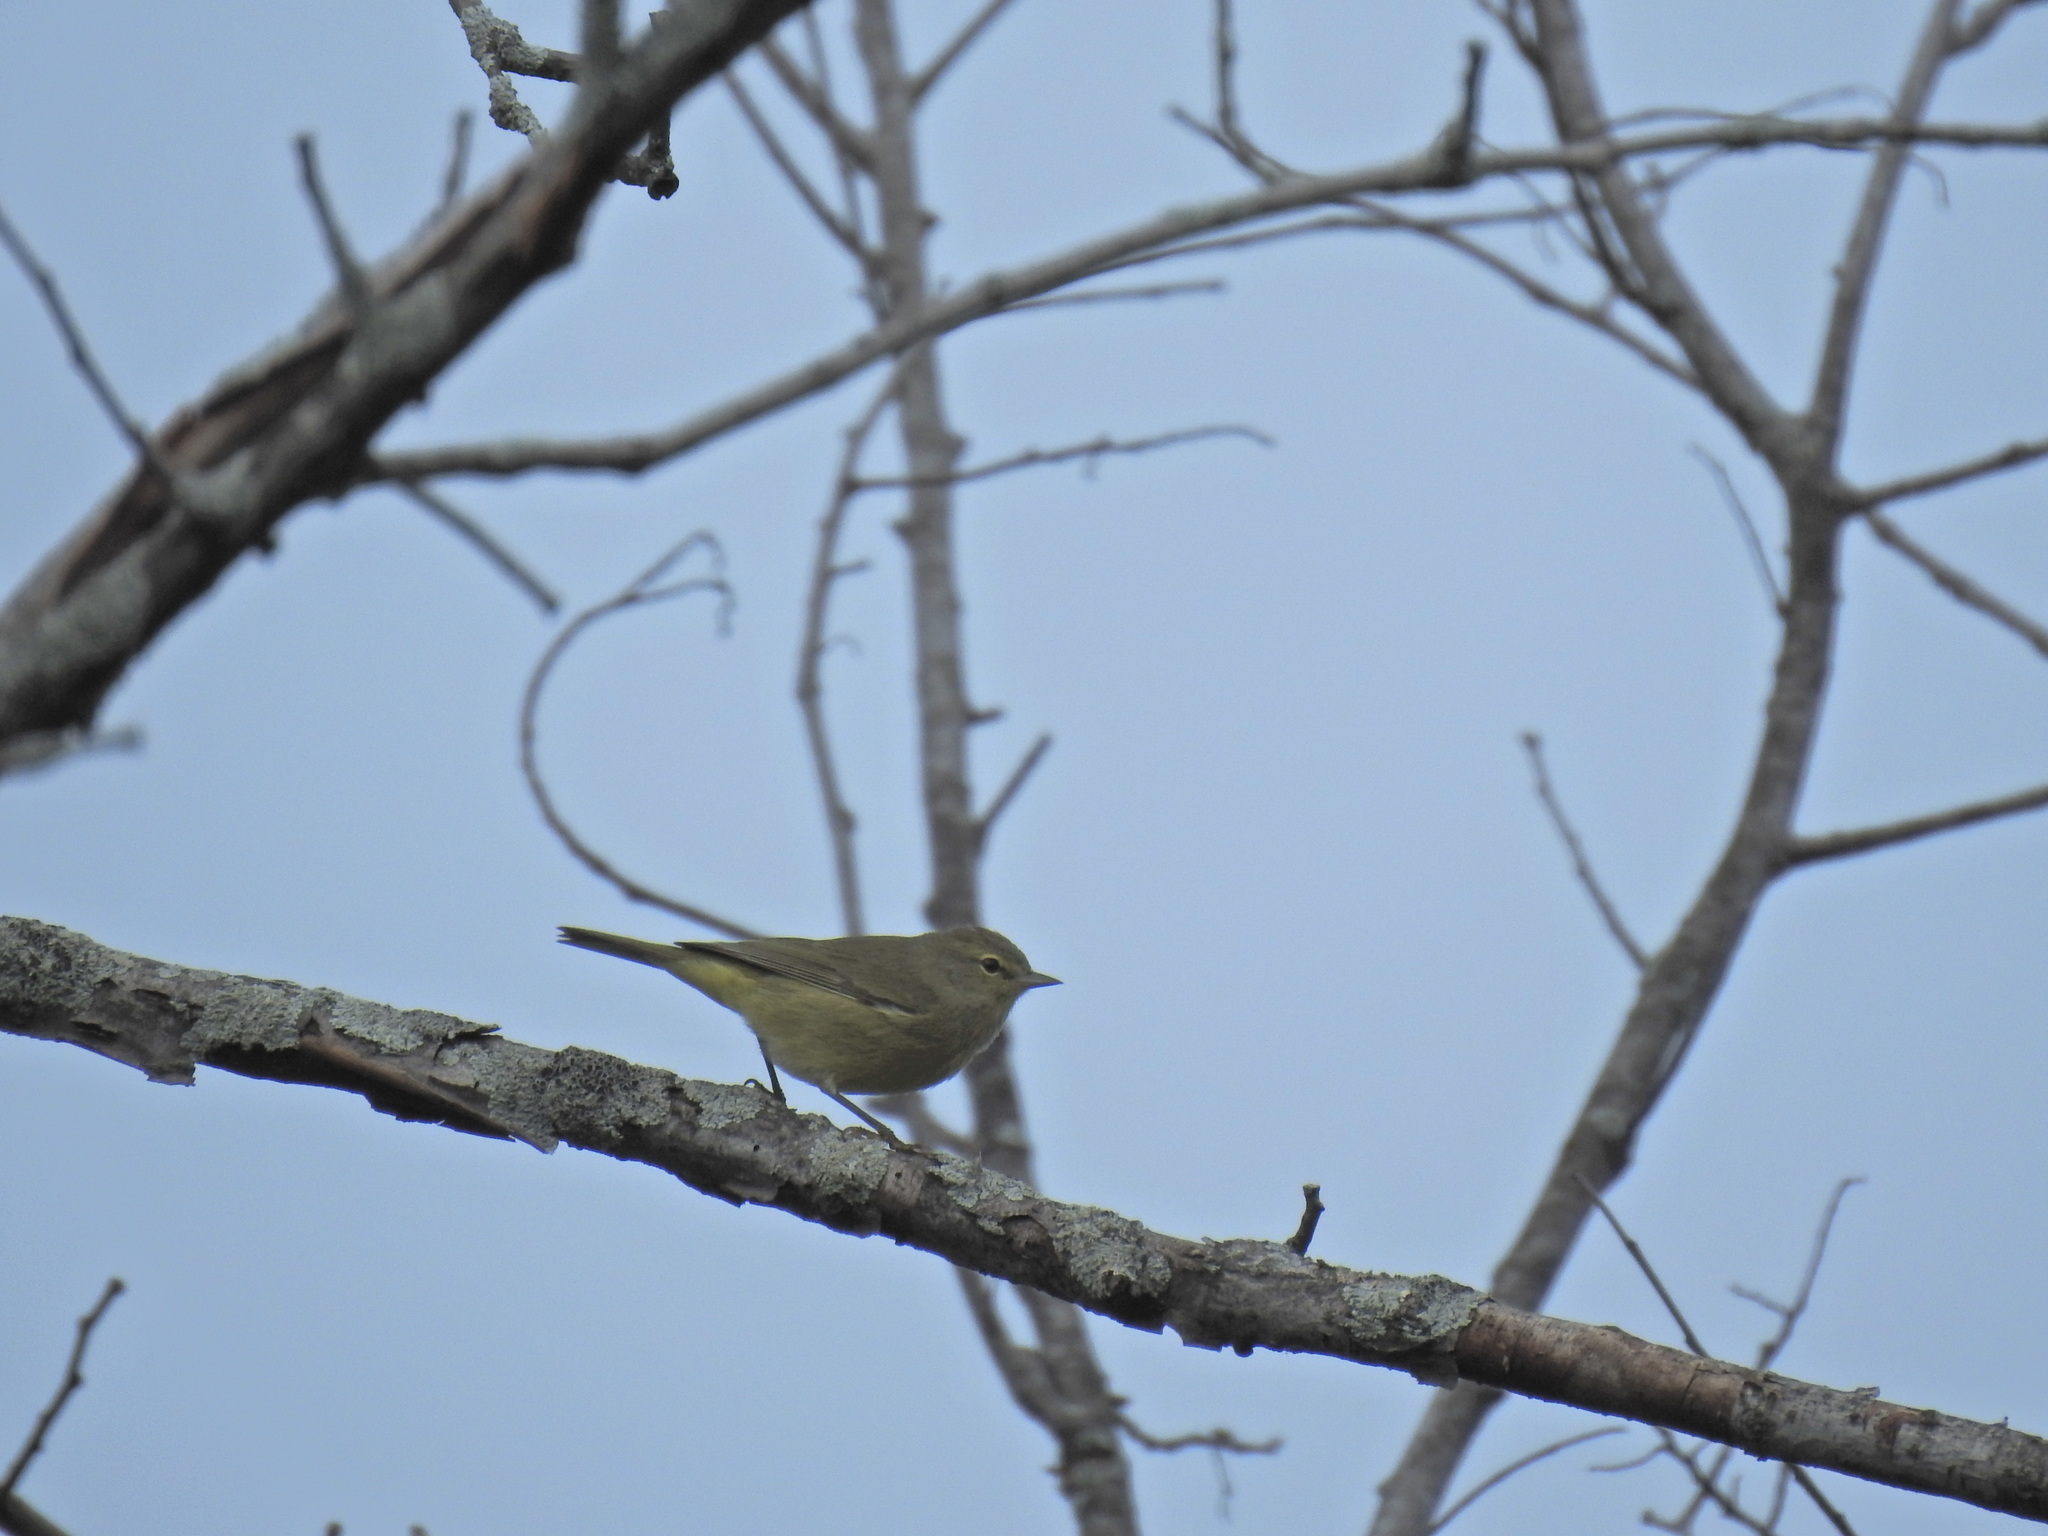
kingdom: Animalia
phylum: Chordata
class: Aves
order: Passeriformes
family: Parulidae
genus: Leiothlypis
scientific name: Leiothlypis celata
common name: Orange-crowned warbler
